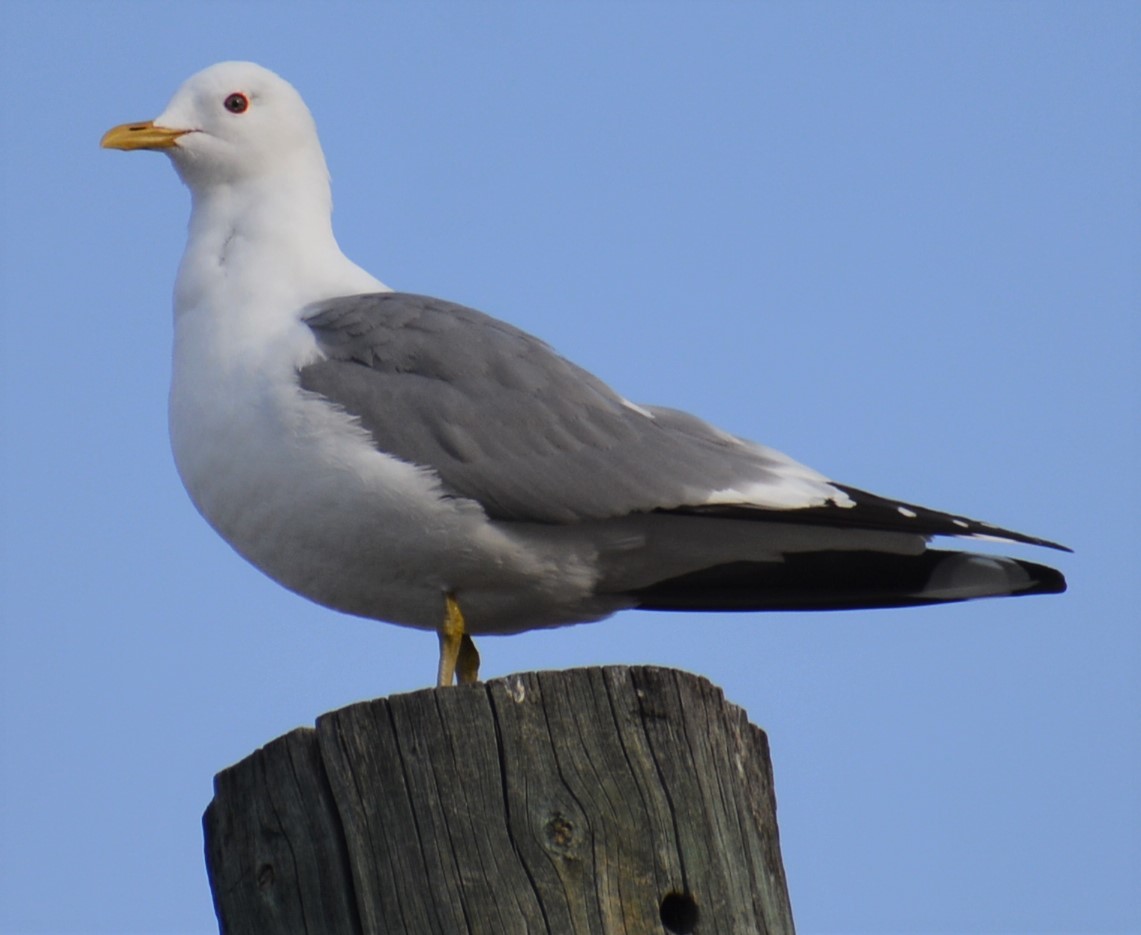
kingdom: Animalia
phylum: Chordata
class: Aves
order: Charadriiformes
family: Laridae
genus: Larus
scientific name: Larus brachyrhynchus
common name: Short-billed gull
